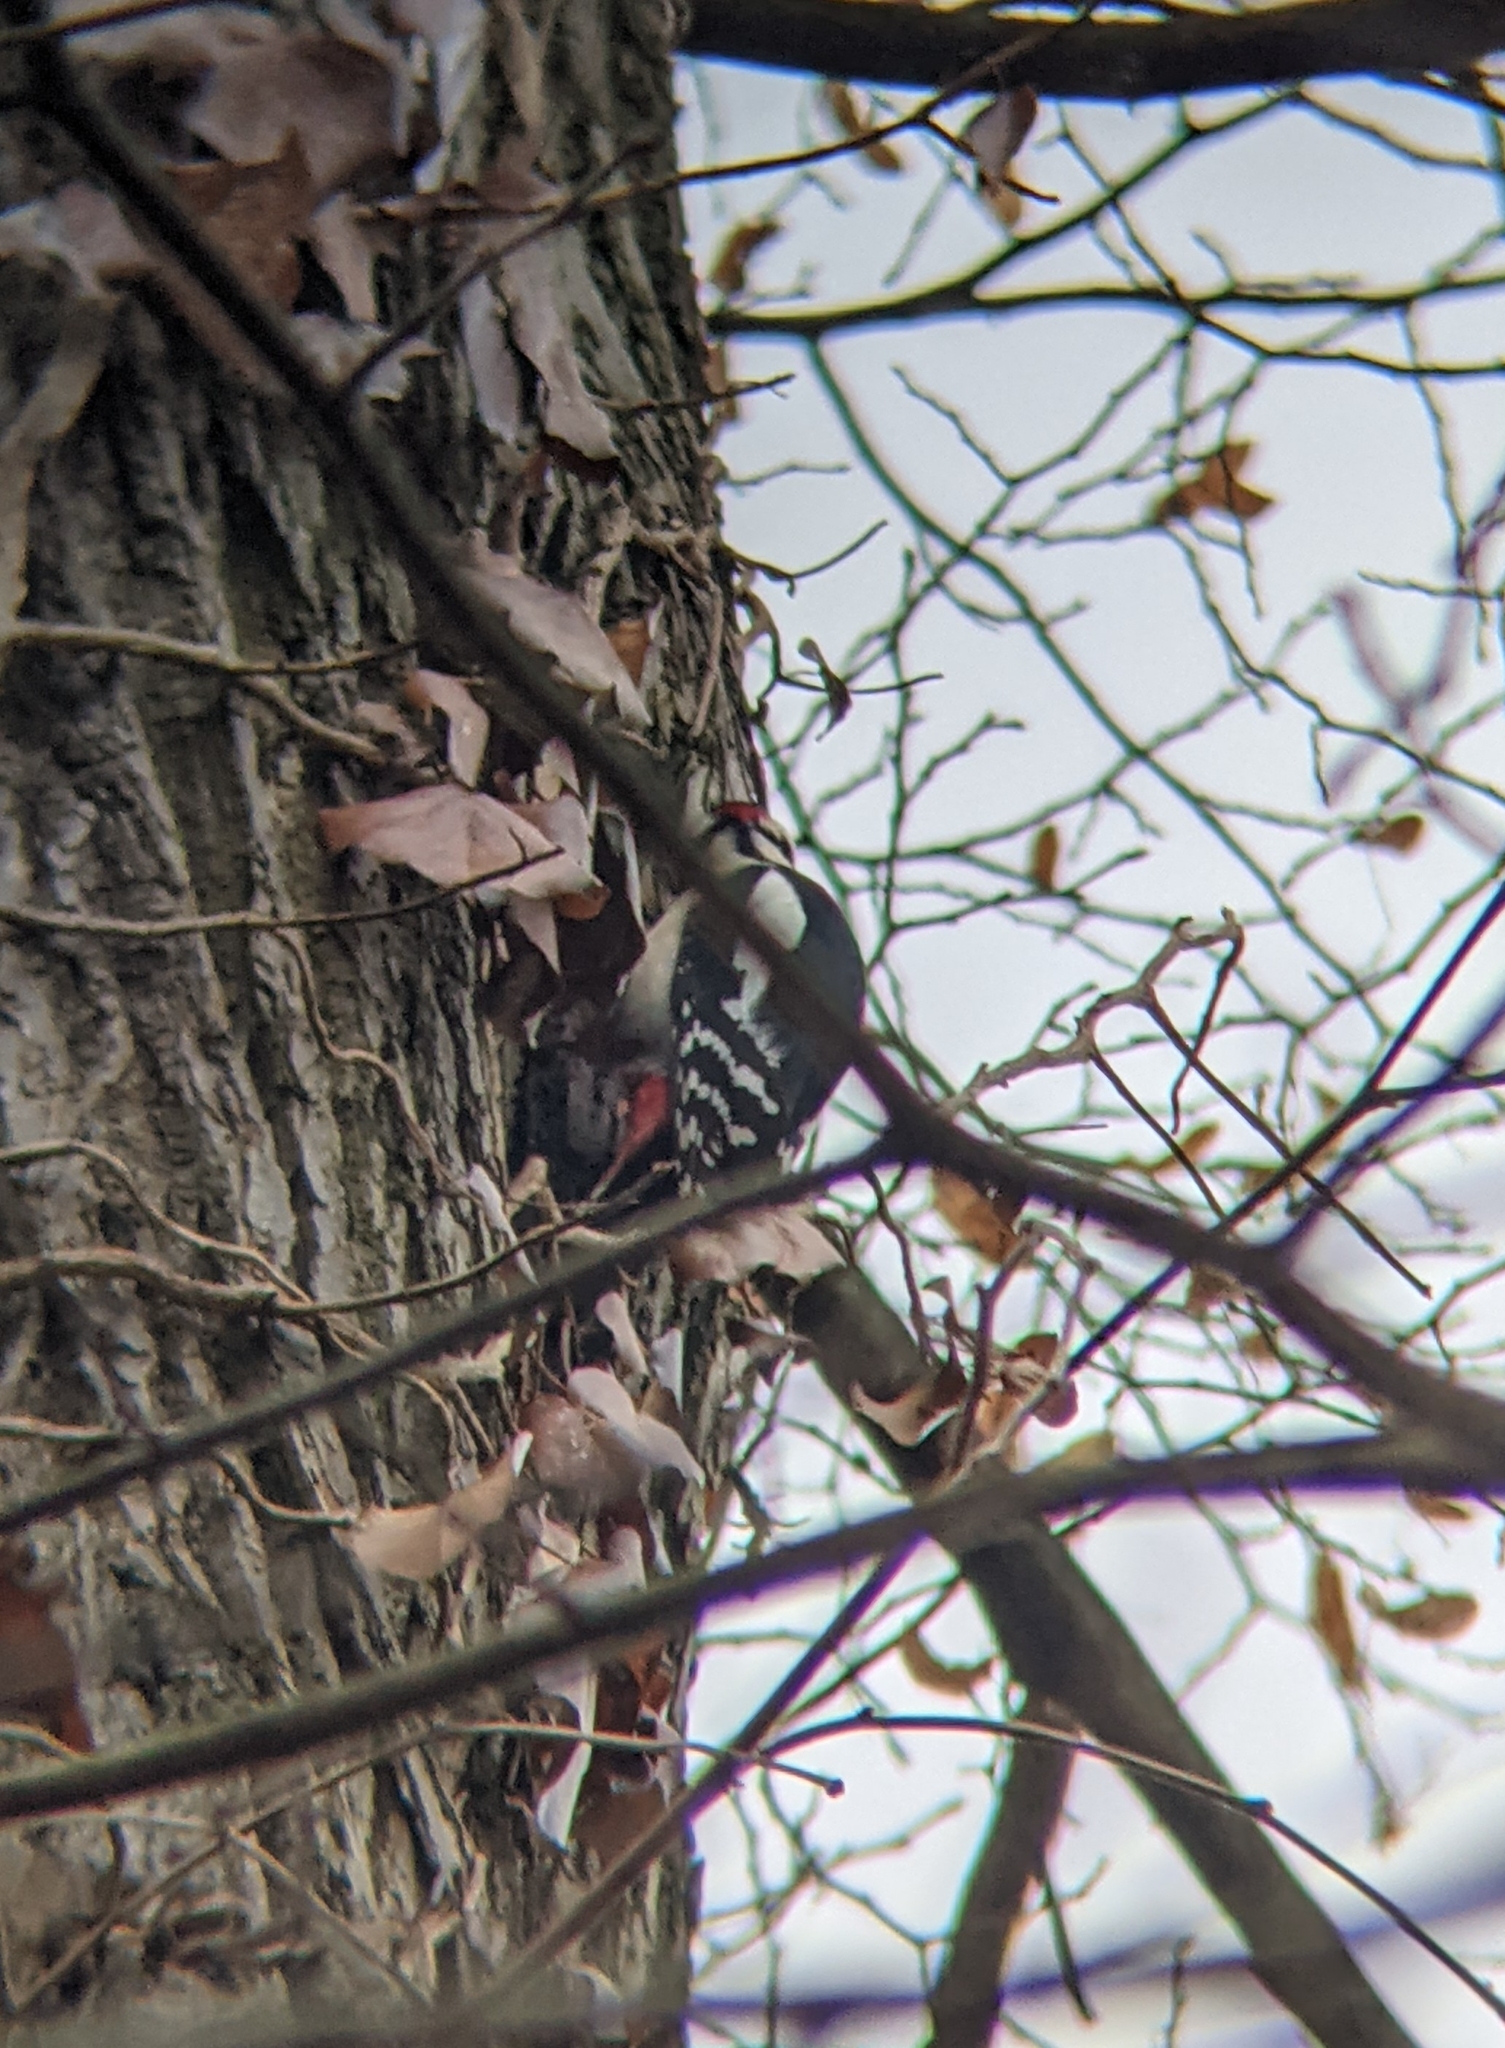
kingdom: Animalia
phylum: Chordata
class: Aves
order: Piciformes
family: Picidae
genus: Dendrocopos
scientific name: Dendrocopos major
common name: Great spotted woodpecker
